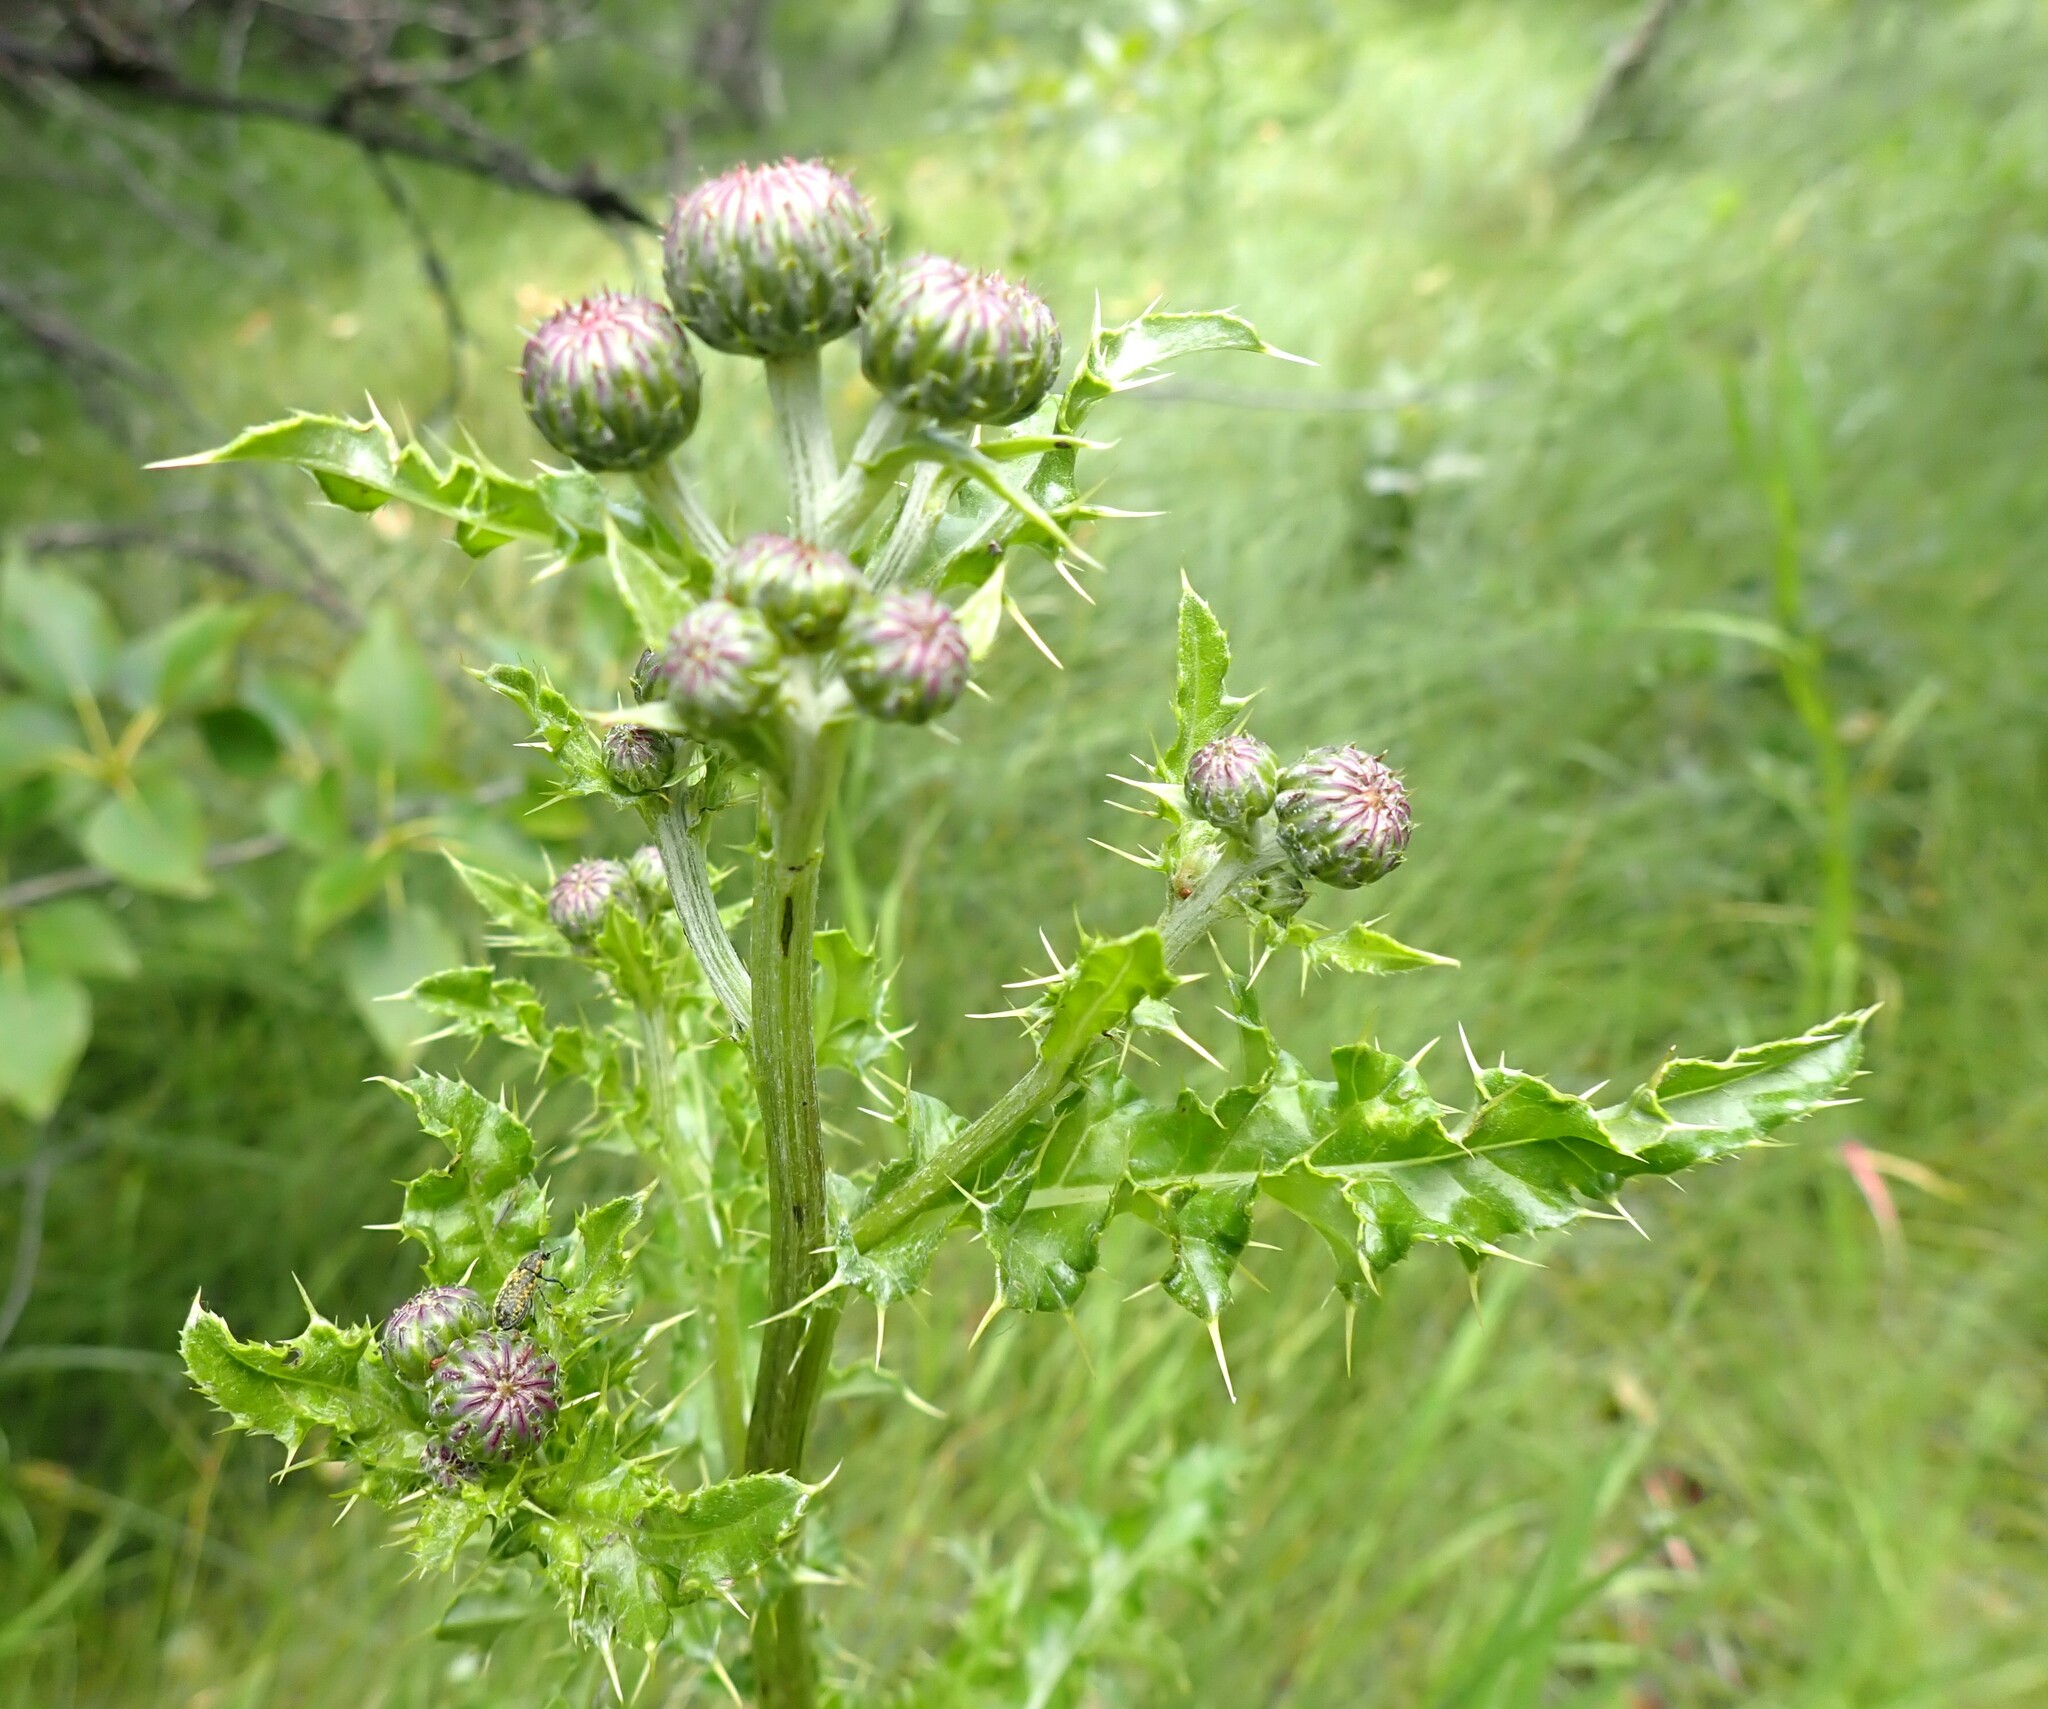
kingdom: Plantae
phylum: Tracheophyta
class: Magnoliopsida
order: Asterales
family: Asteraceae
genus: Cirsium
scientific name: Cirsium arvense
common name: Creeping thistle
